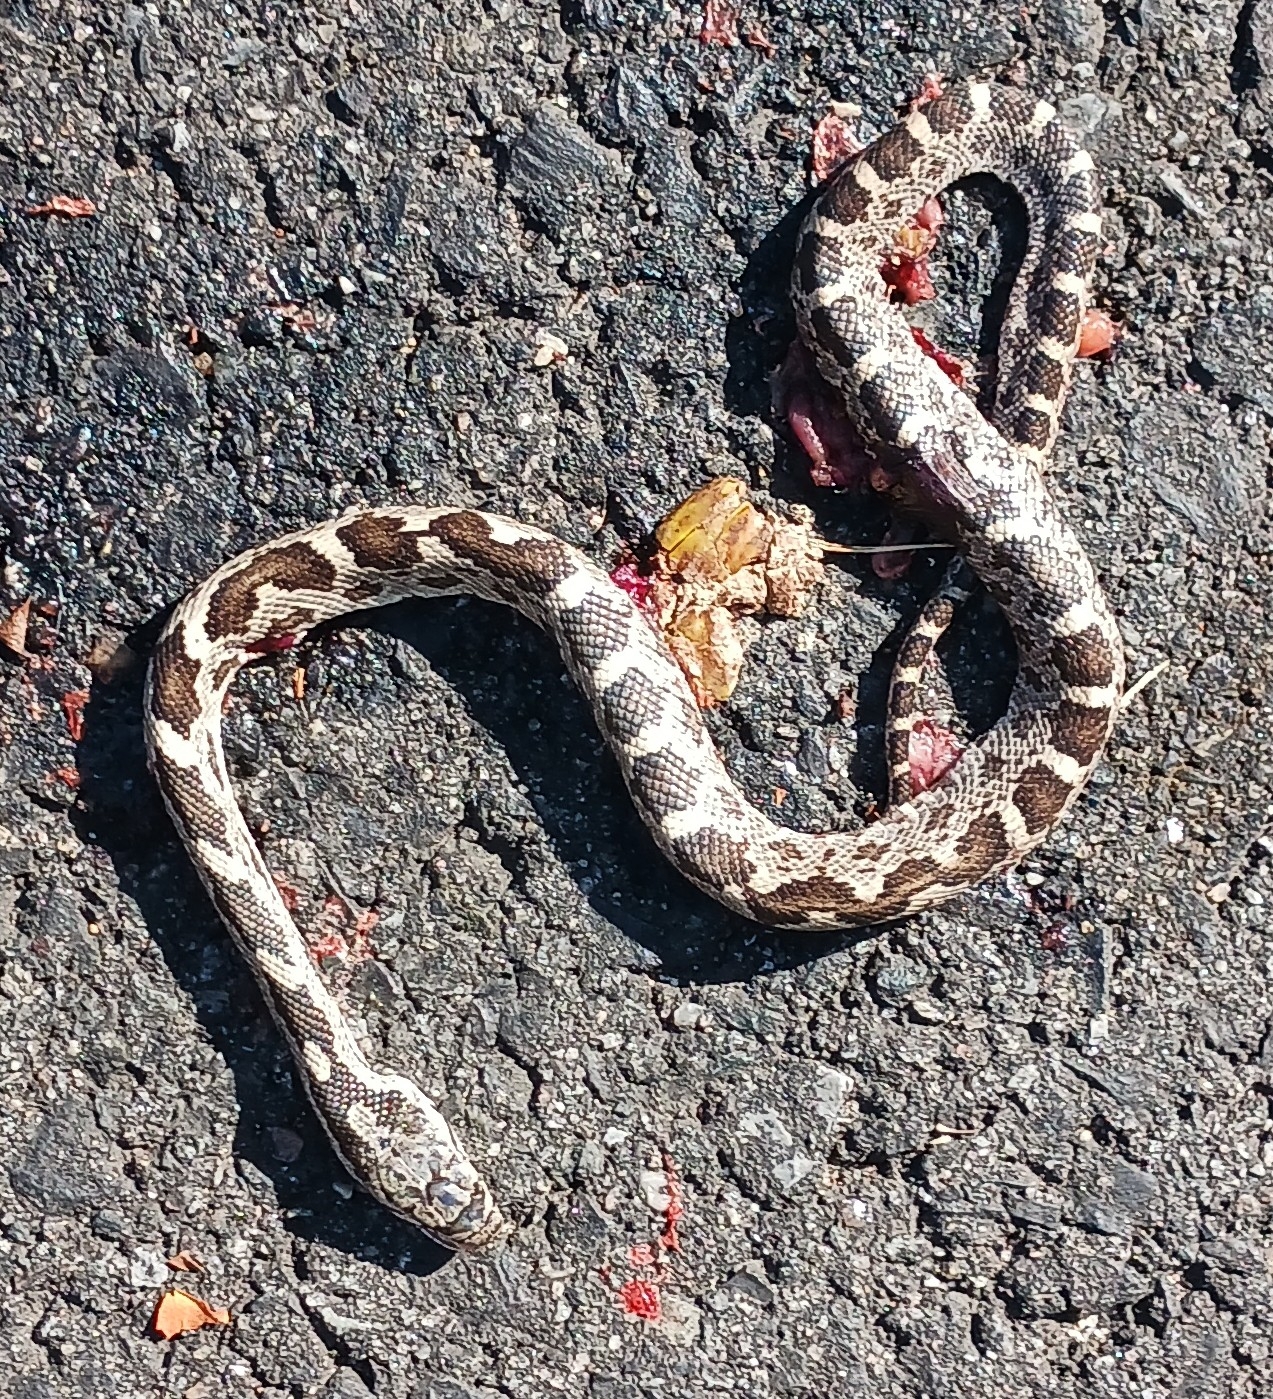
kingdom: Animalia
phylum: Chordata
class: Squamata
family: Colubridae
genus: Pantherophis
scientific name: Pantherophis alleghaniensis
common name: Eastern rat snake
